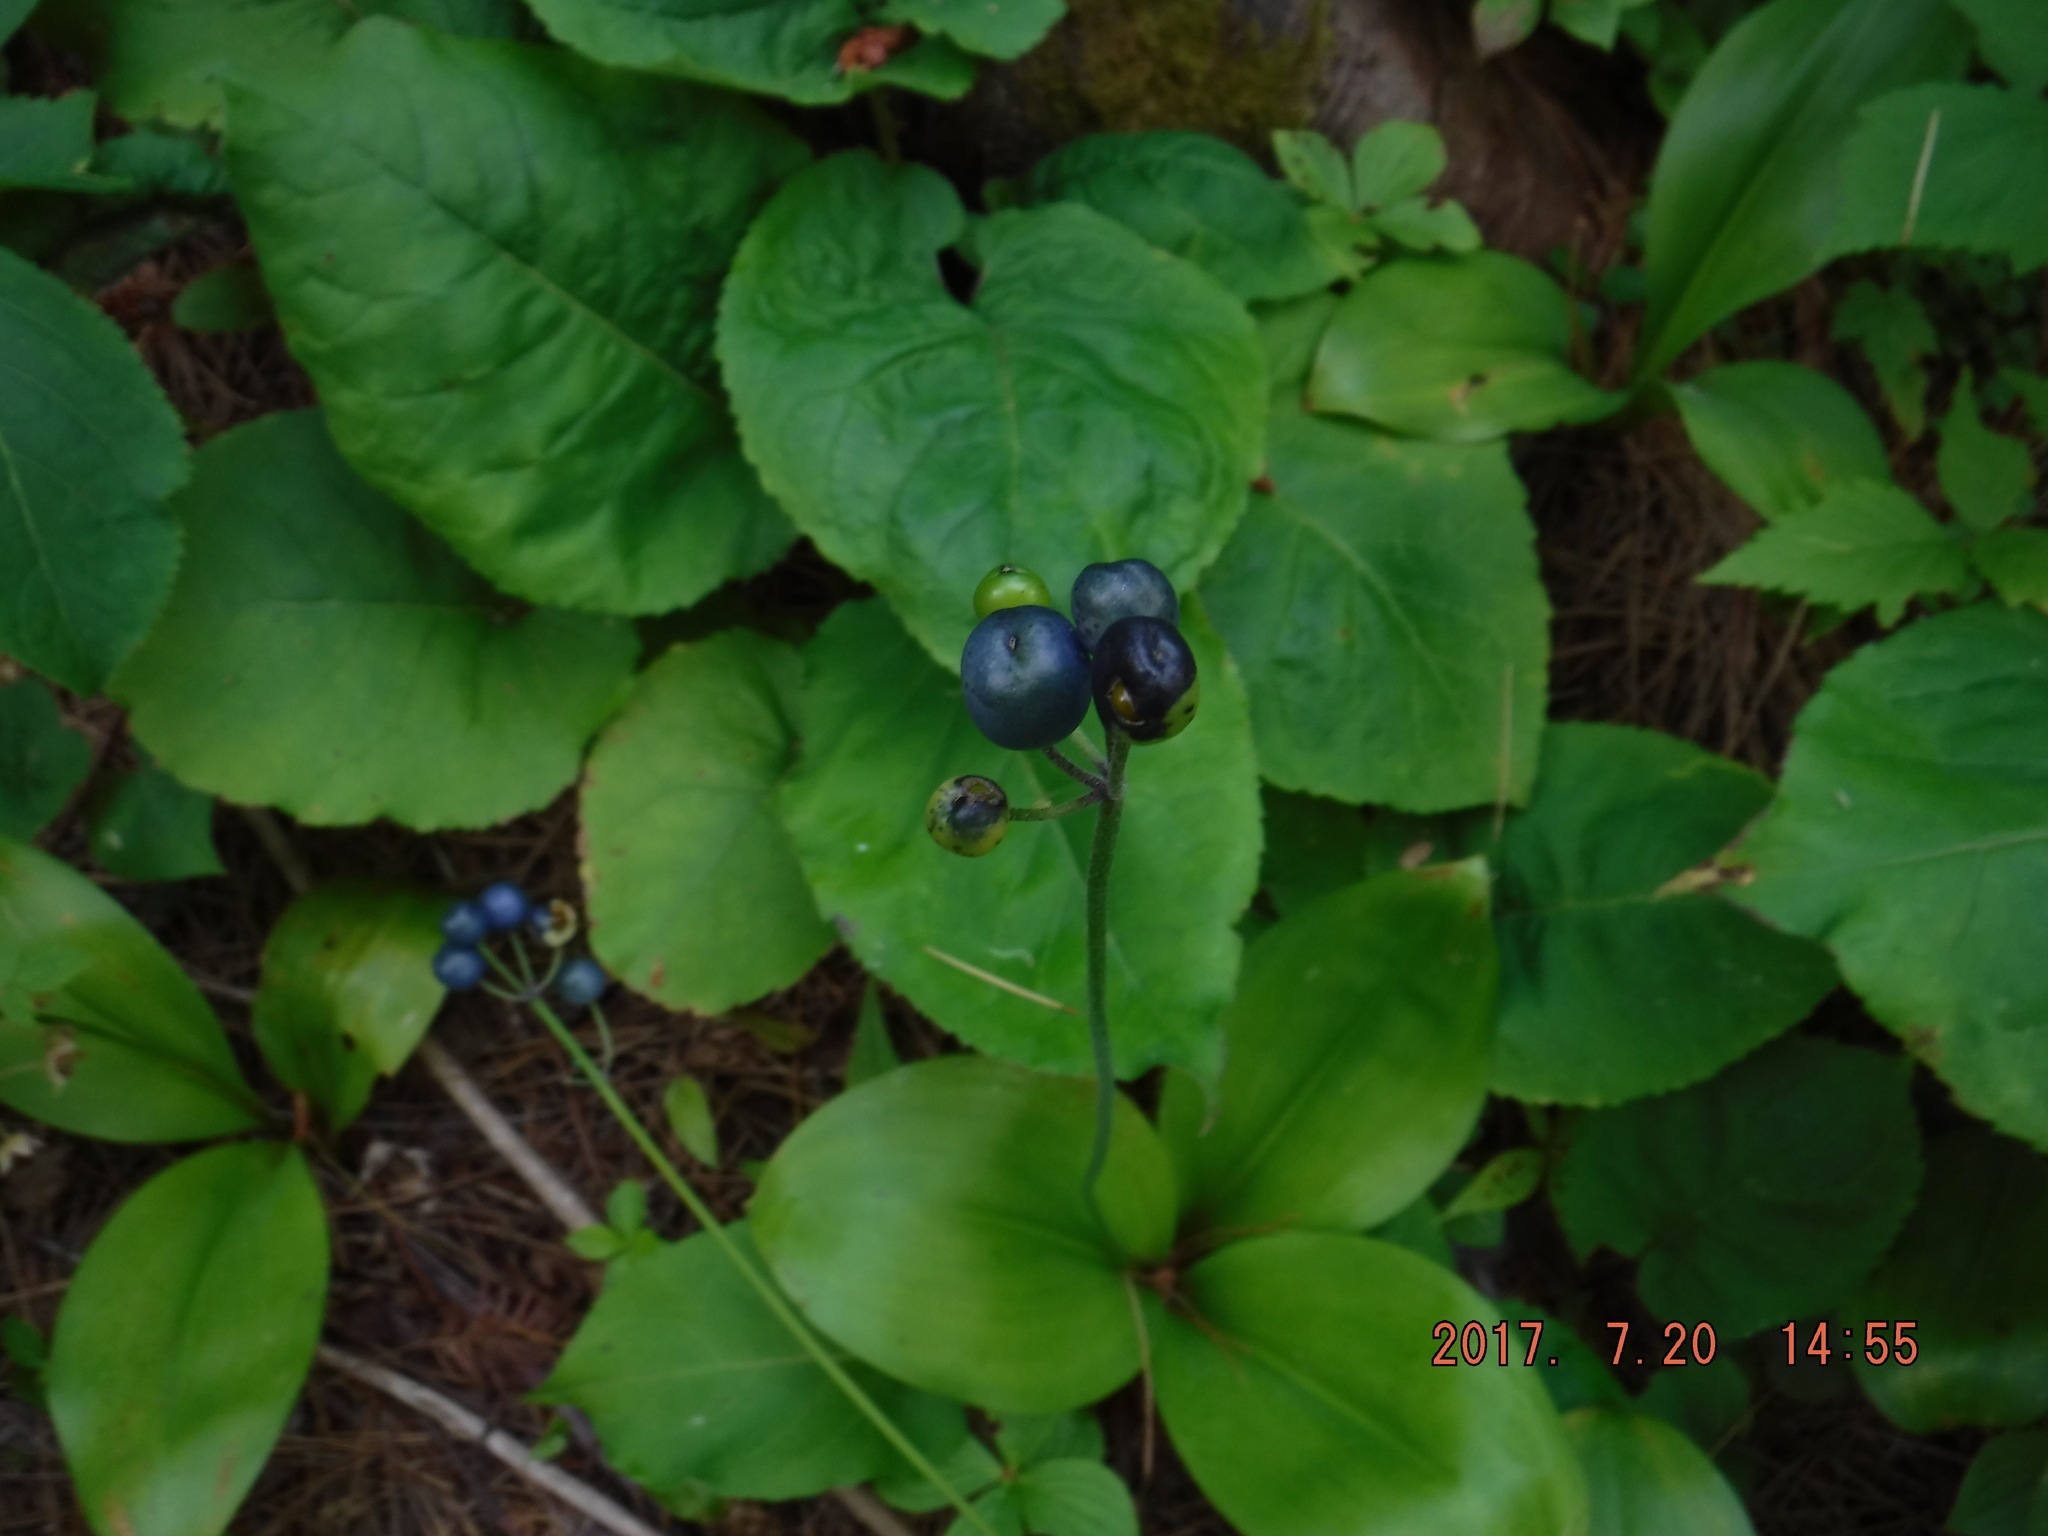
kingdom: Plantae
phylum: Tracheophyta
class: Liliopsida
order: Liliales
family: Liliaceae
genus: Clintonia
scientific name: Clintonia borealis
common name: Yellow clintonia
